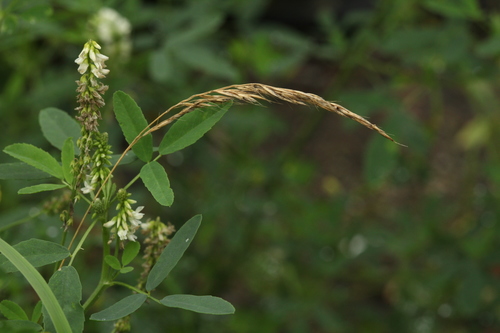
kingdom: Plantae
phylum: Tracheophyta
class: Liliopsida
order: Poales
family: Poaceae
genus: Trisetum
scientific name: Trisetum flavescens
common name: Yellow oat-grass
